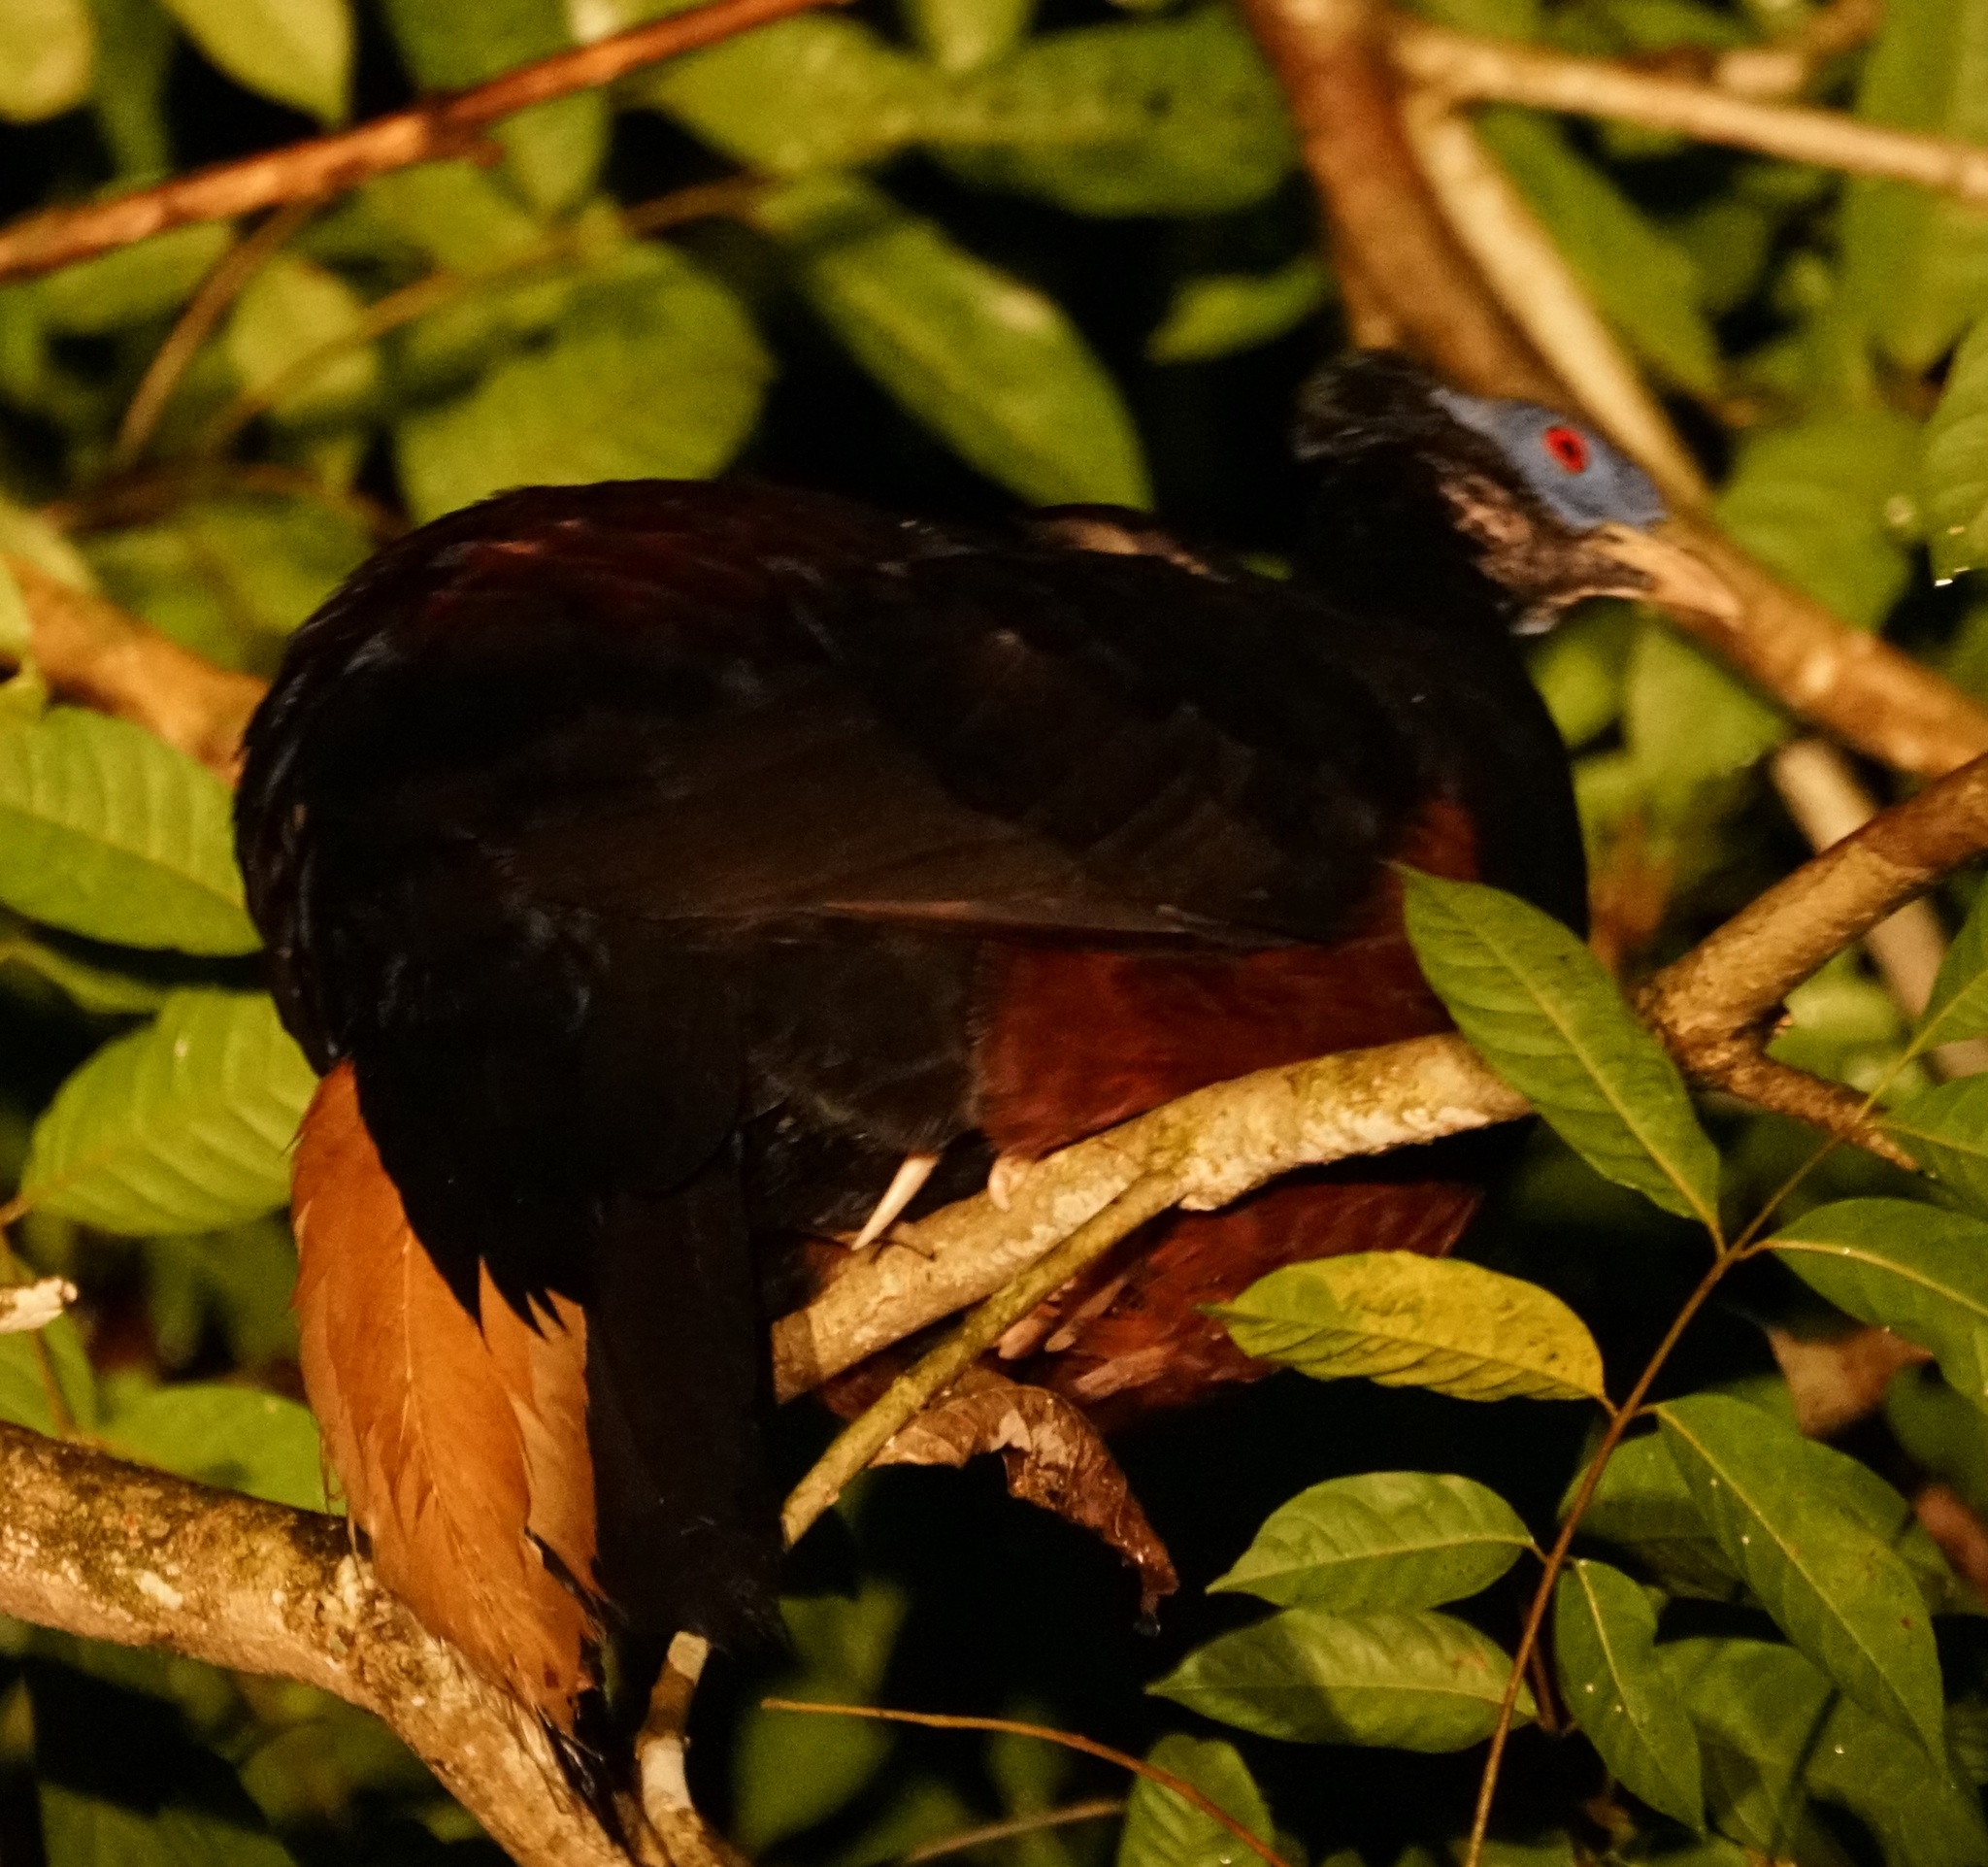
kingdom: Animalia
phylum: Chordata
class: Aves
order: Galliformes
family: Phasianidae
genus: Lophura
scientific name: Lophura ignita
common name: Crested fireback
